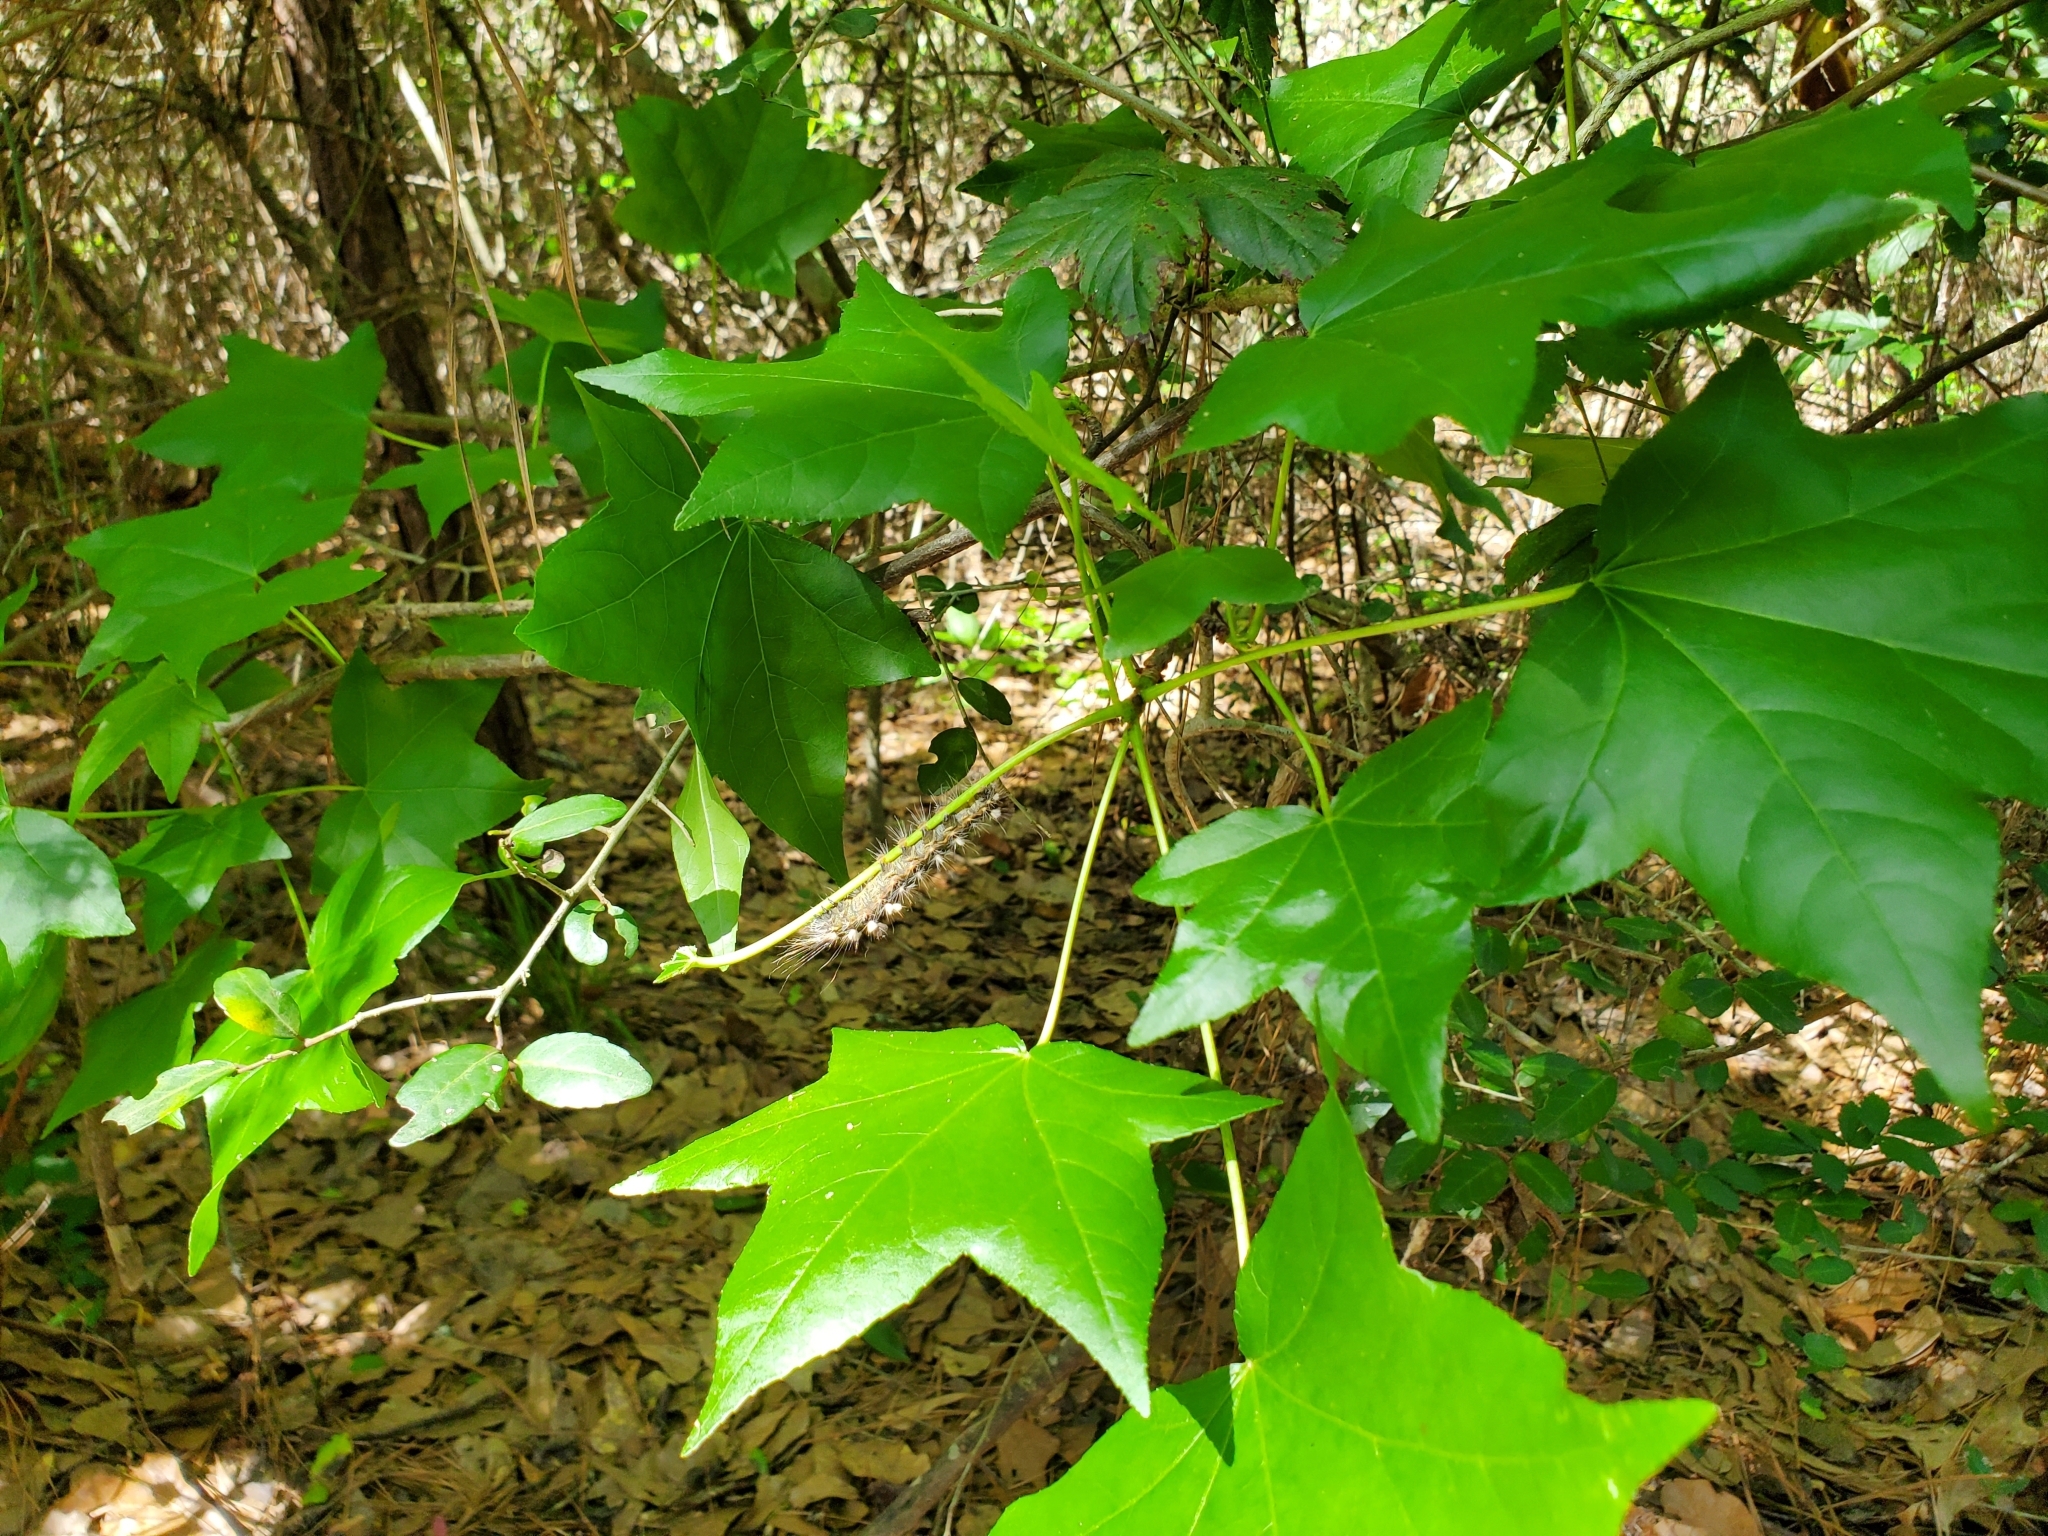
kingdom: Animalia
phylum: Arthropoda
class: Insecta
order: Lepidoptera
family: Noctuidae
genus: Acronicta
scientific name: Acronicta impleta
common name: Powdered dagger
